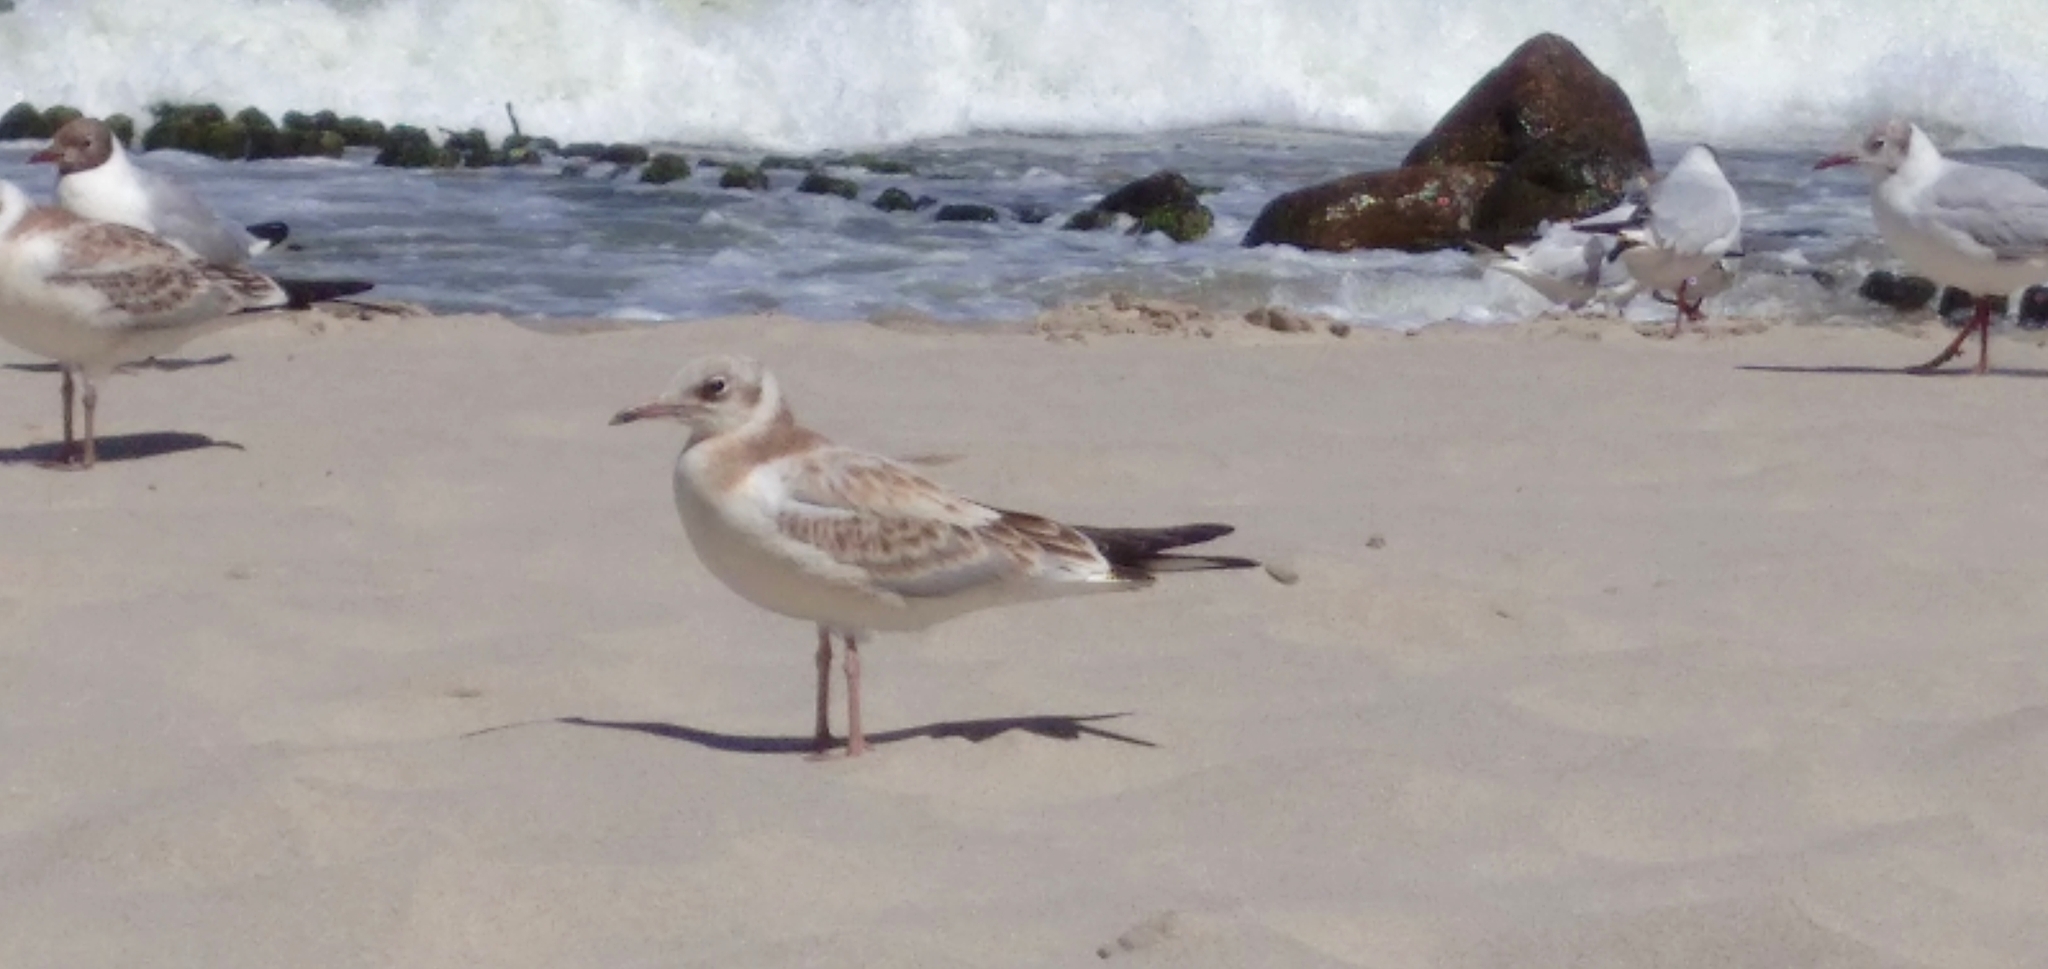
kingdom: Animalia
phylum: Chordata
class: Aves
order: Charadriiformes
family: Laridae
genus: Chroicocephalus
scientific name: Chroicocephalus ridibundus
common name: Black-headed gull
